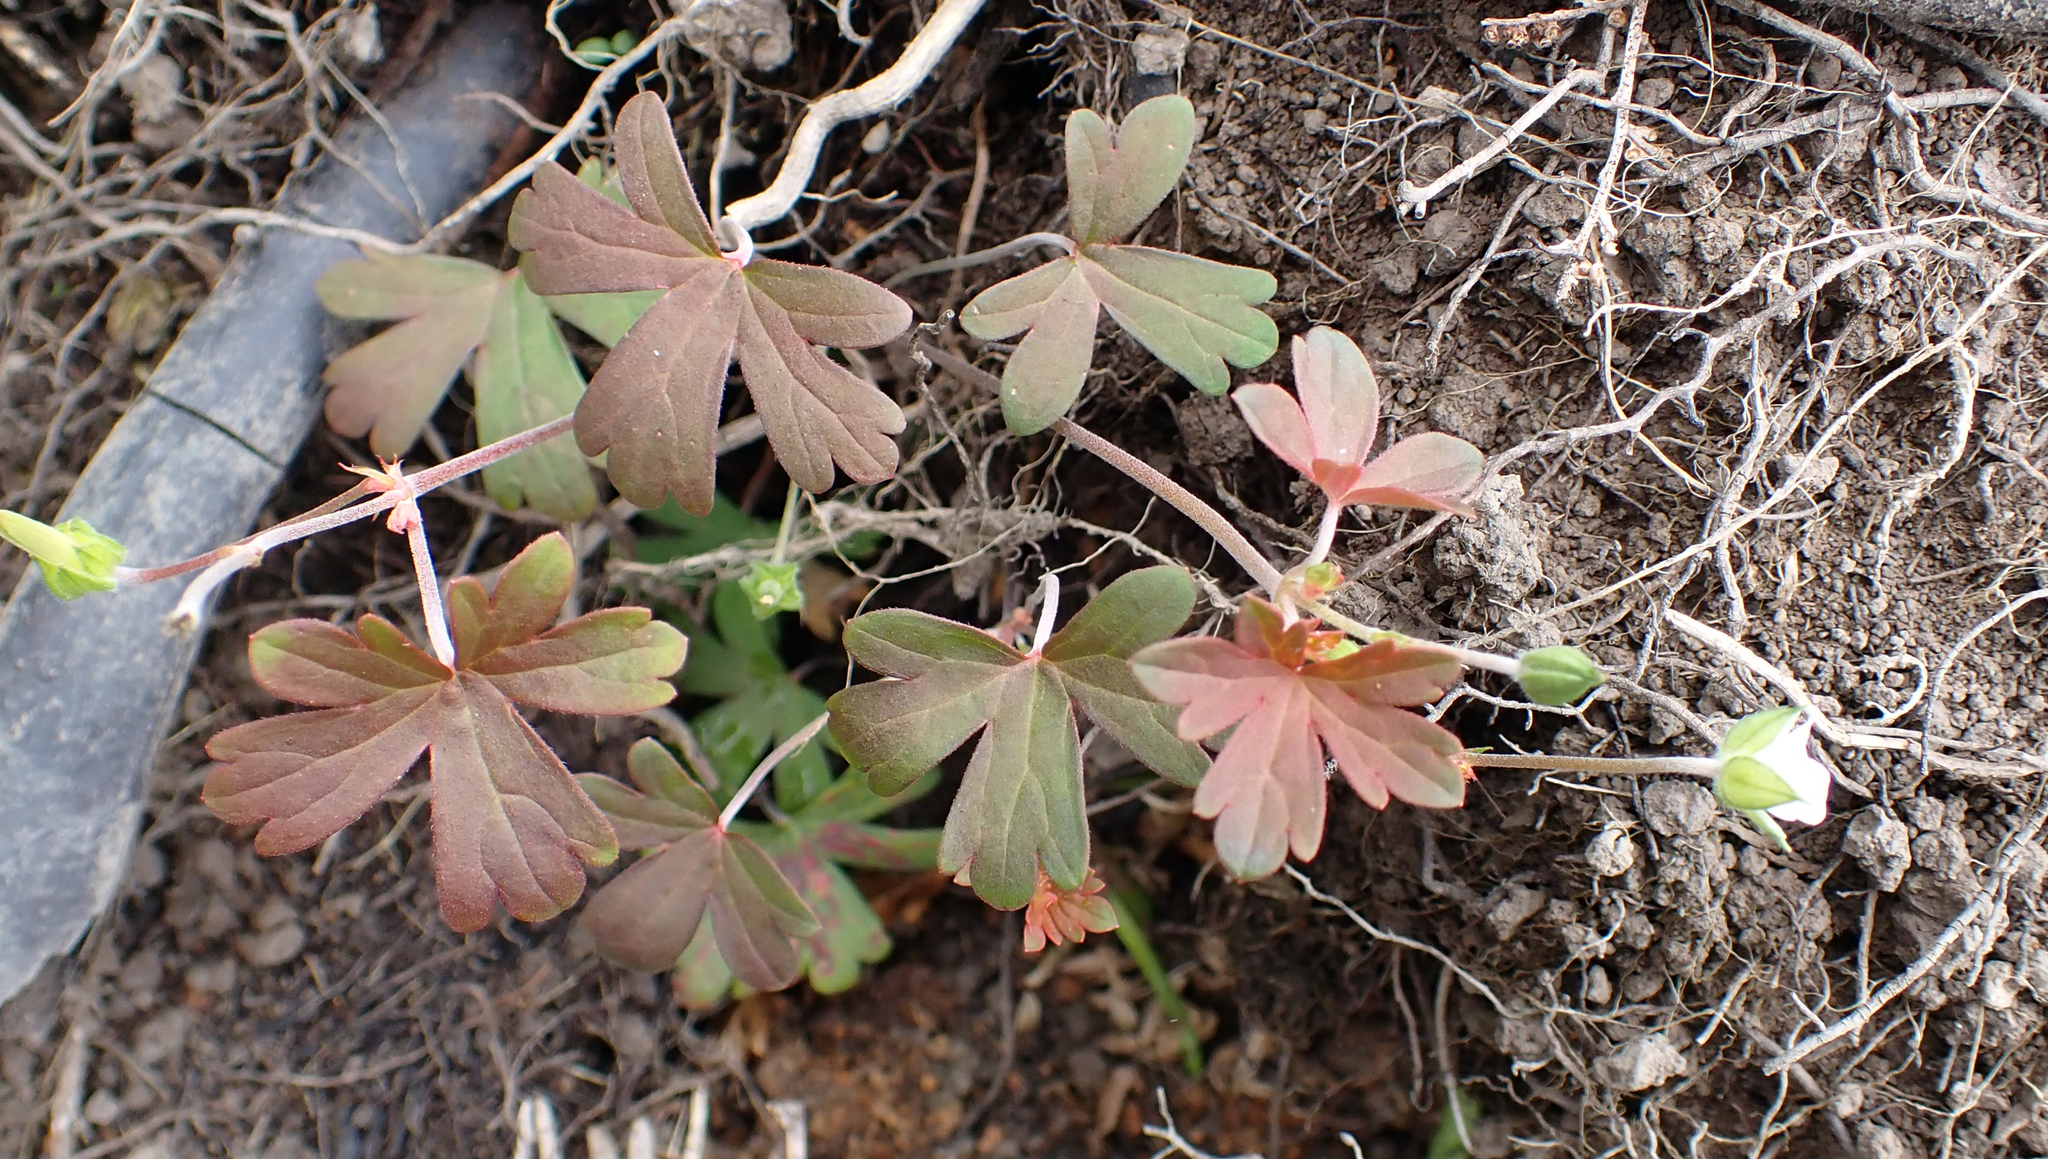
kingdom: Plantae
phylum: Tracheophyta
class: Magnoliopsida
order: Geraniales
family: Geraniaceae
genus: Geranium
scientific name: Geranium
